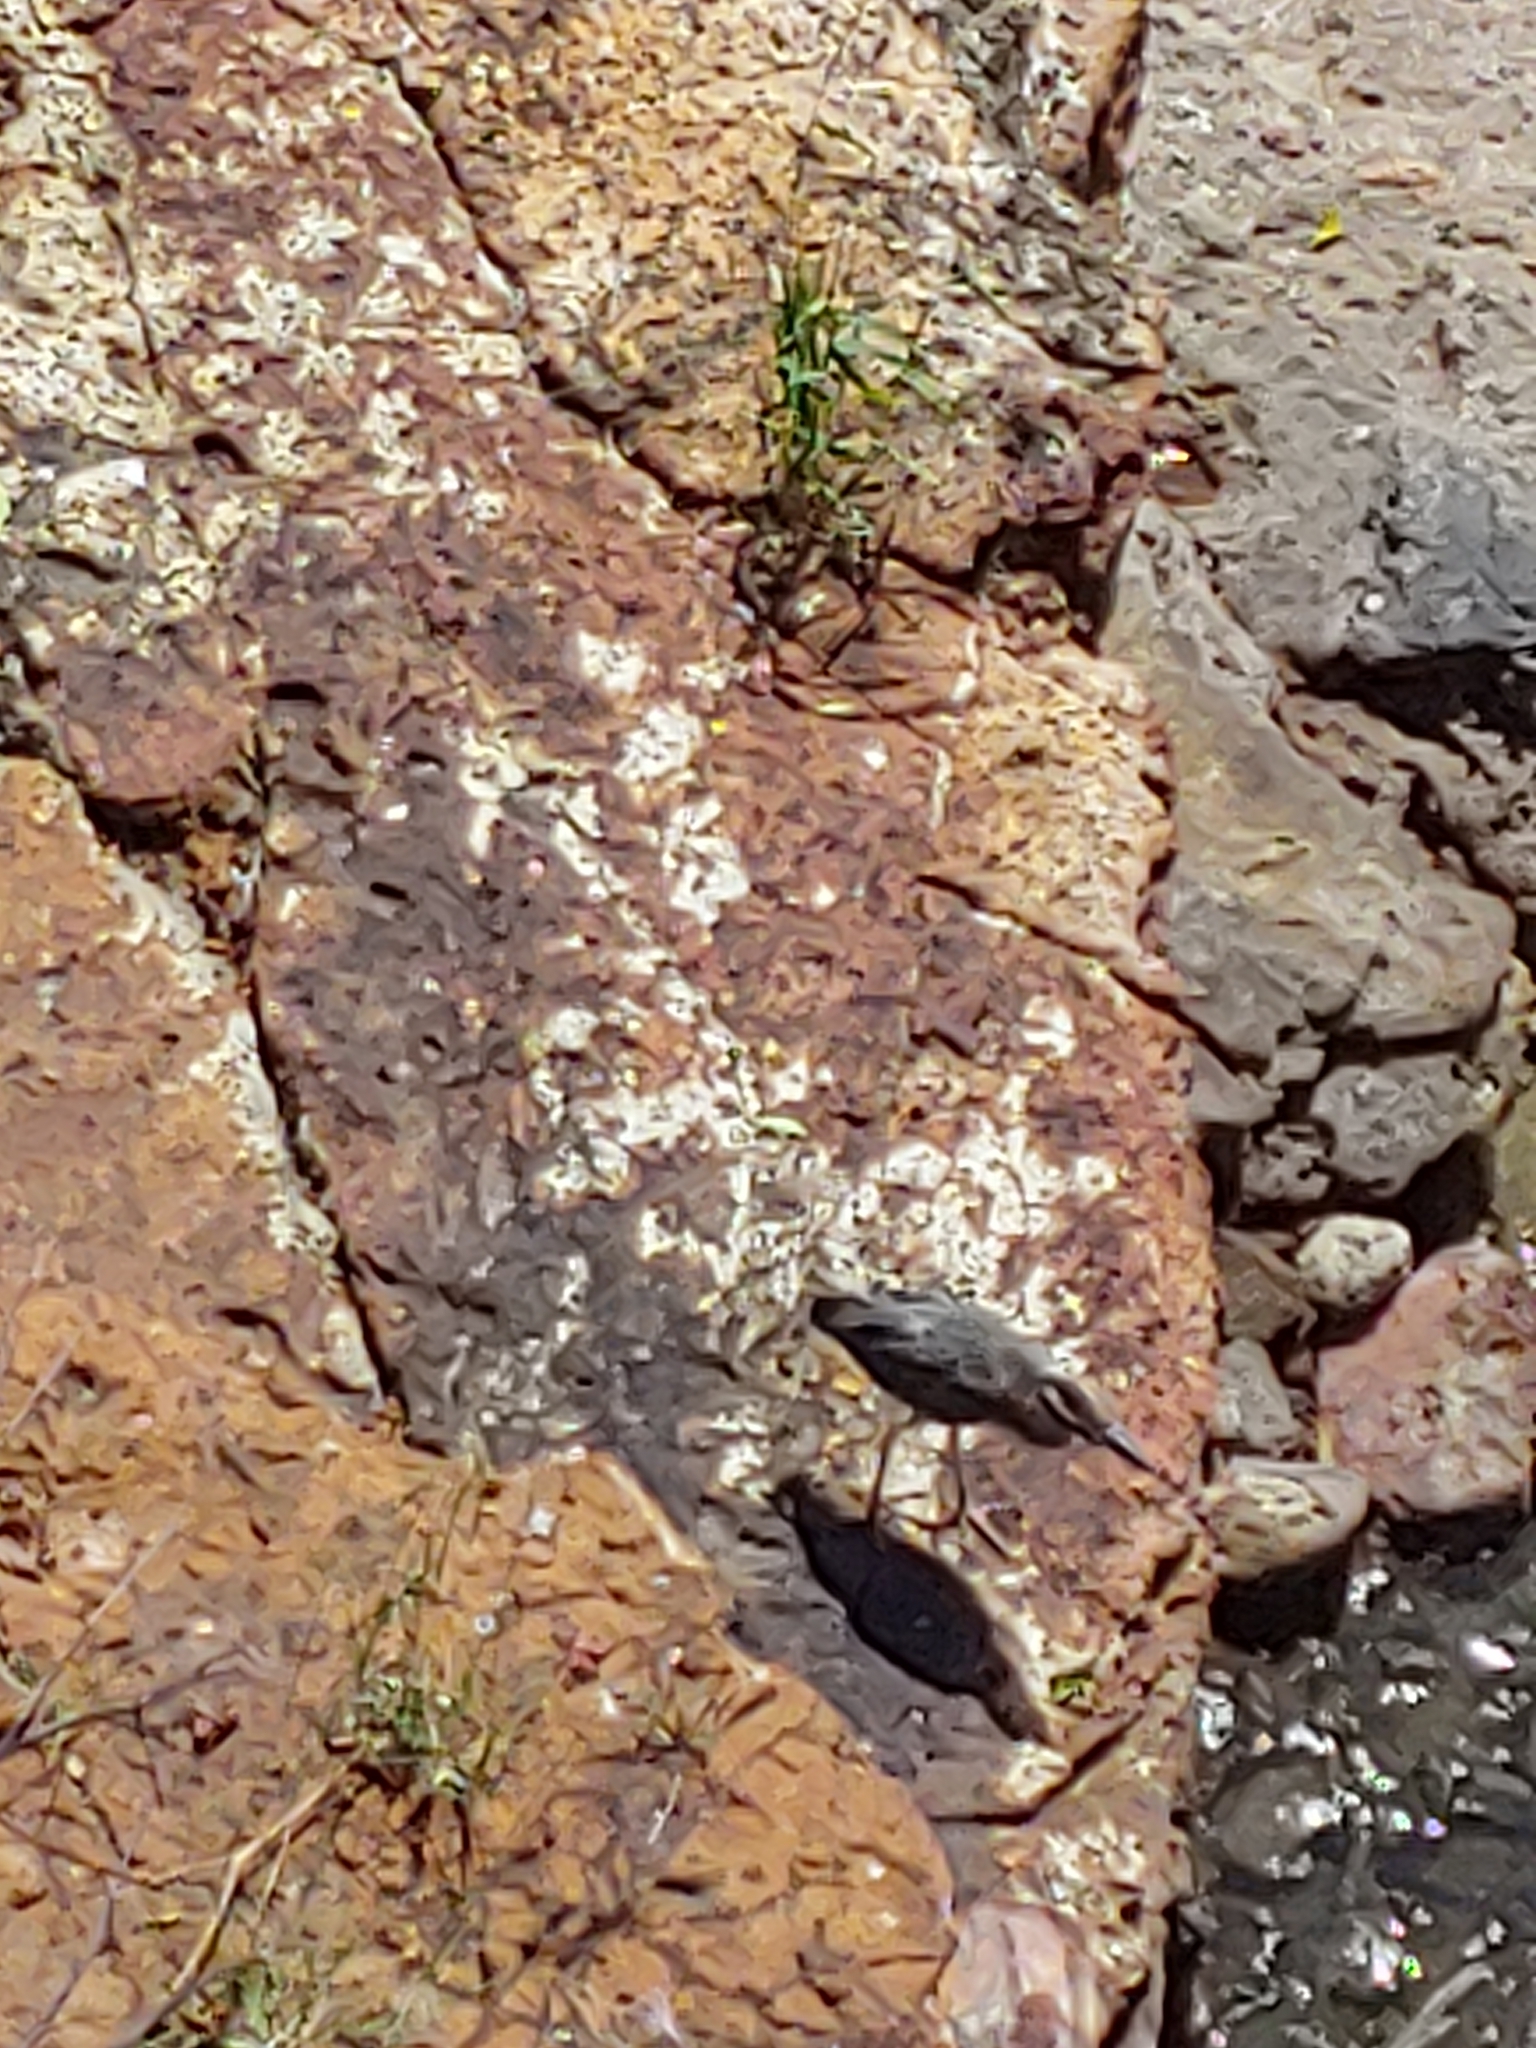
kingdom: Animalia
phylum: Chordata
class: Aves
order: Pelecaniformes
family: Ardeidae
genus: Nyctanassa
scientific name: Nyctanassa violacea
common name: Yellow-crowned night heron
